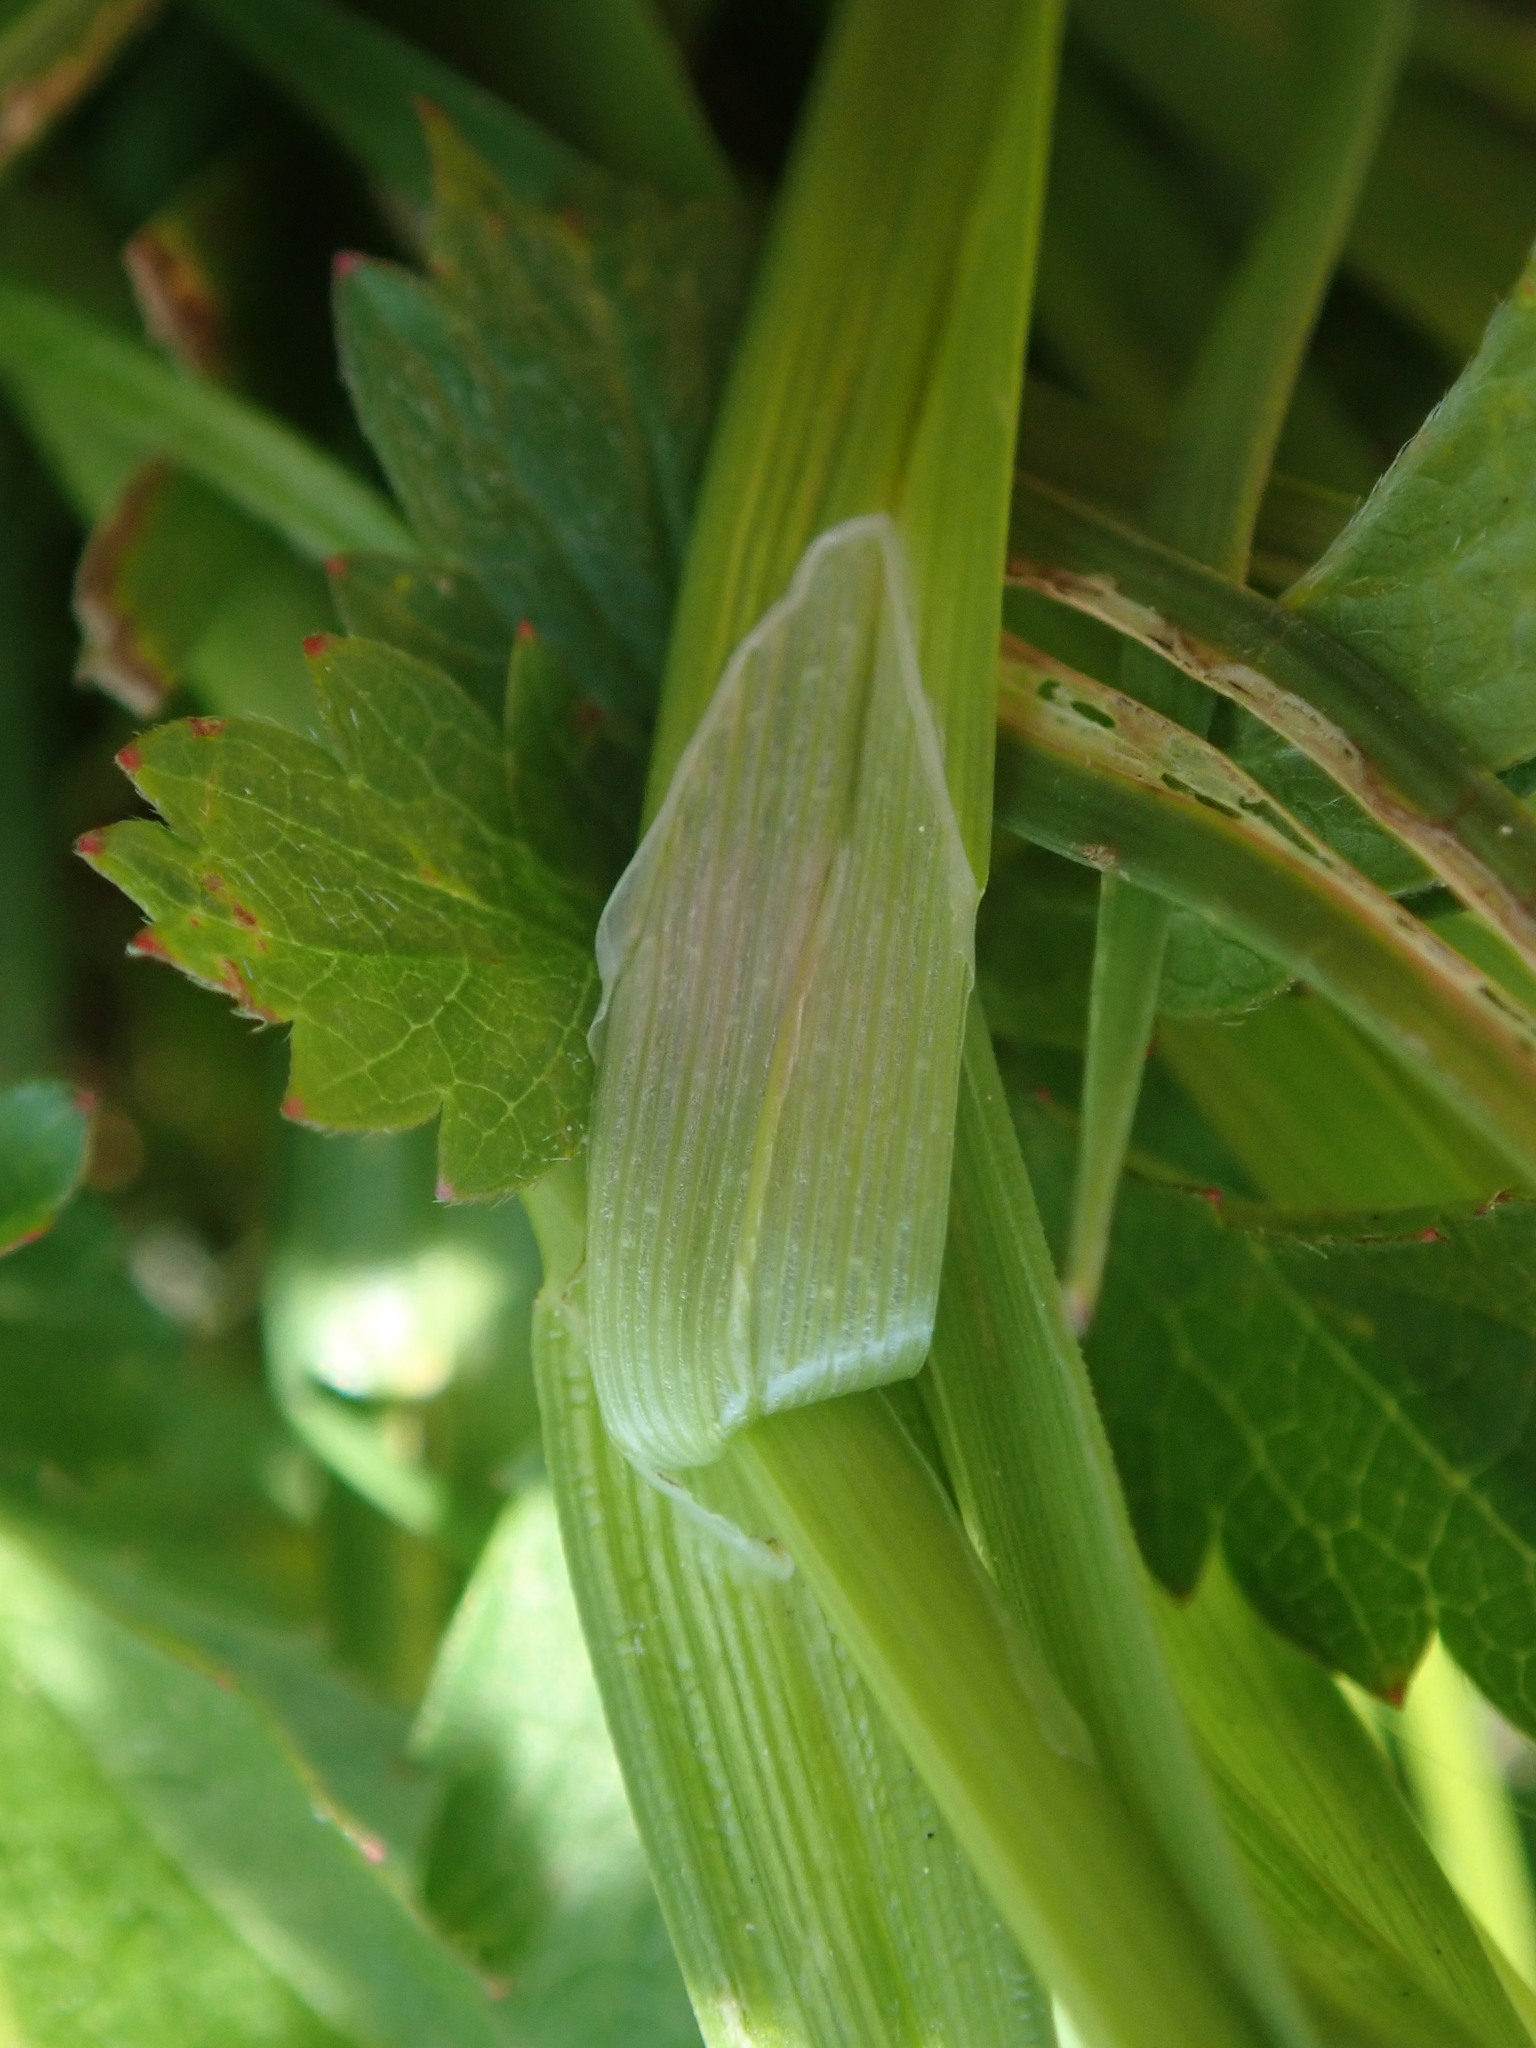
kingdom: Plantae
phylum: Tracheophyta
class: Liliopsida
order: Poales
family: Cyperaceae
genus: Carex
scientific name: Carex spicata
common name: Spiked sedge
